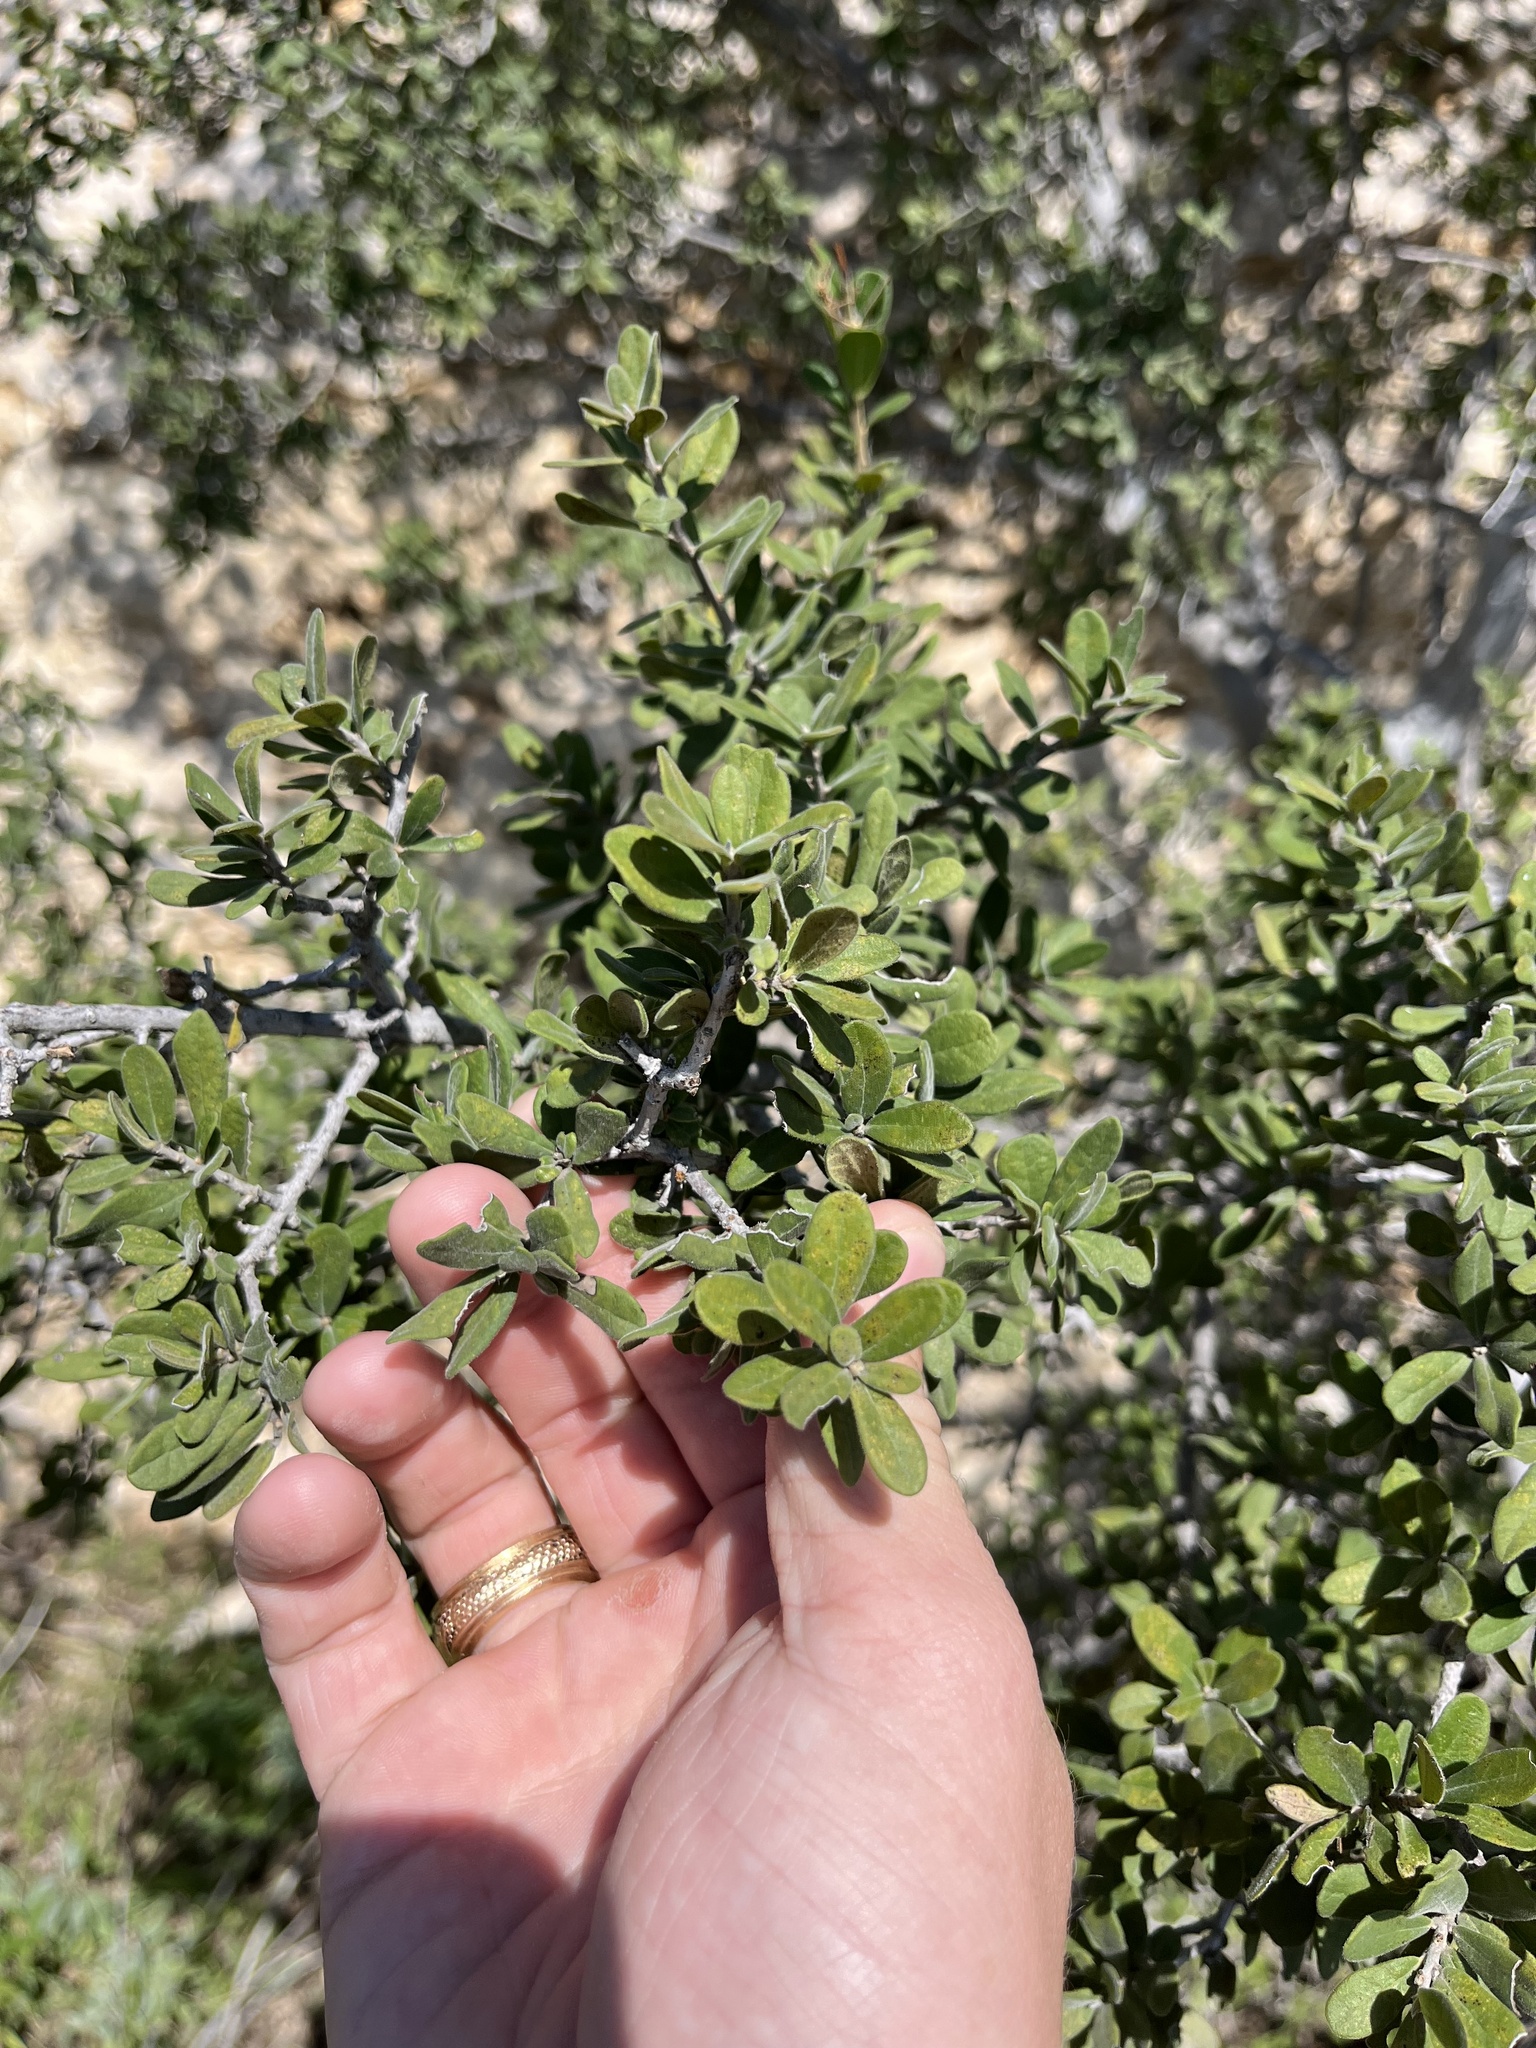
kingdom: Plantae
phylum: Tracheophyta
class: Magnoliopsida
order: Ericales
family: Ebenaceae
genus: Diospyros
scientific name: Diospyros texana
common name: Texas persimmon
